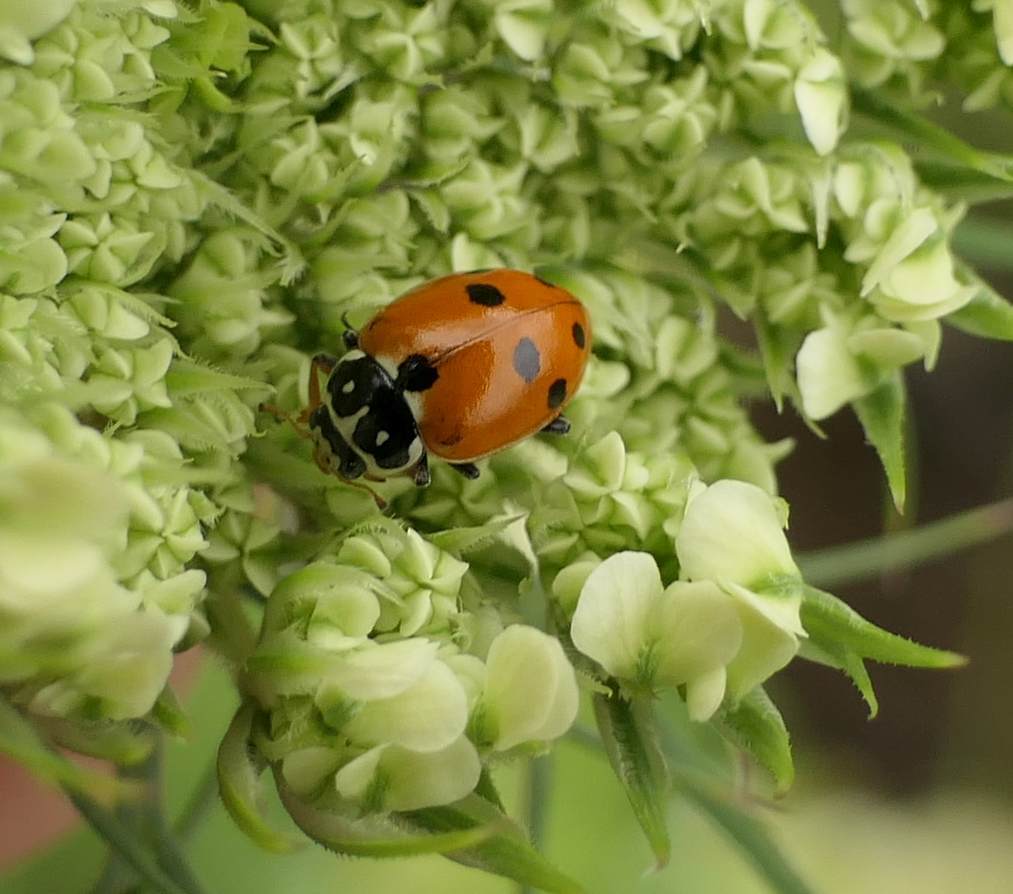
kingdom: Animalia
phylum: Arthropoda
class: Insecta
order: Coleoptera
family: Coccinellidae
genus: Hippodamia
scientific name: Hippodamia variegata
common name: Ladybird beetle
